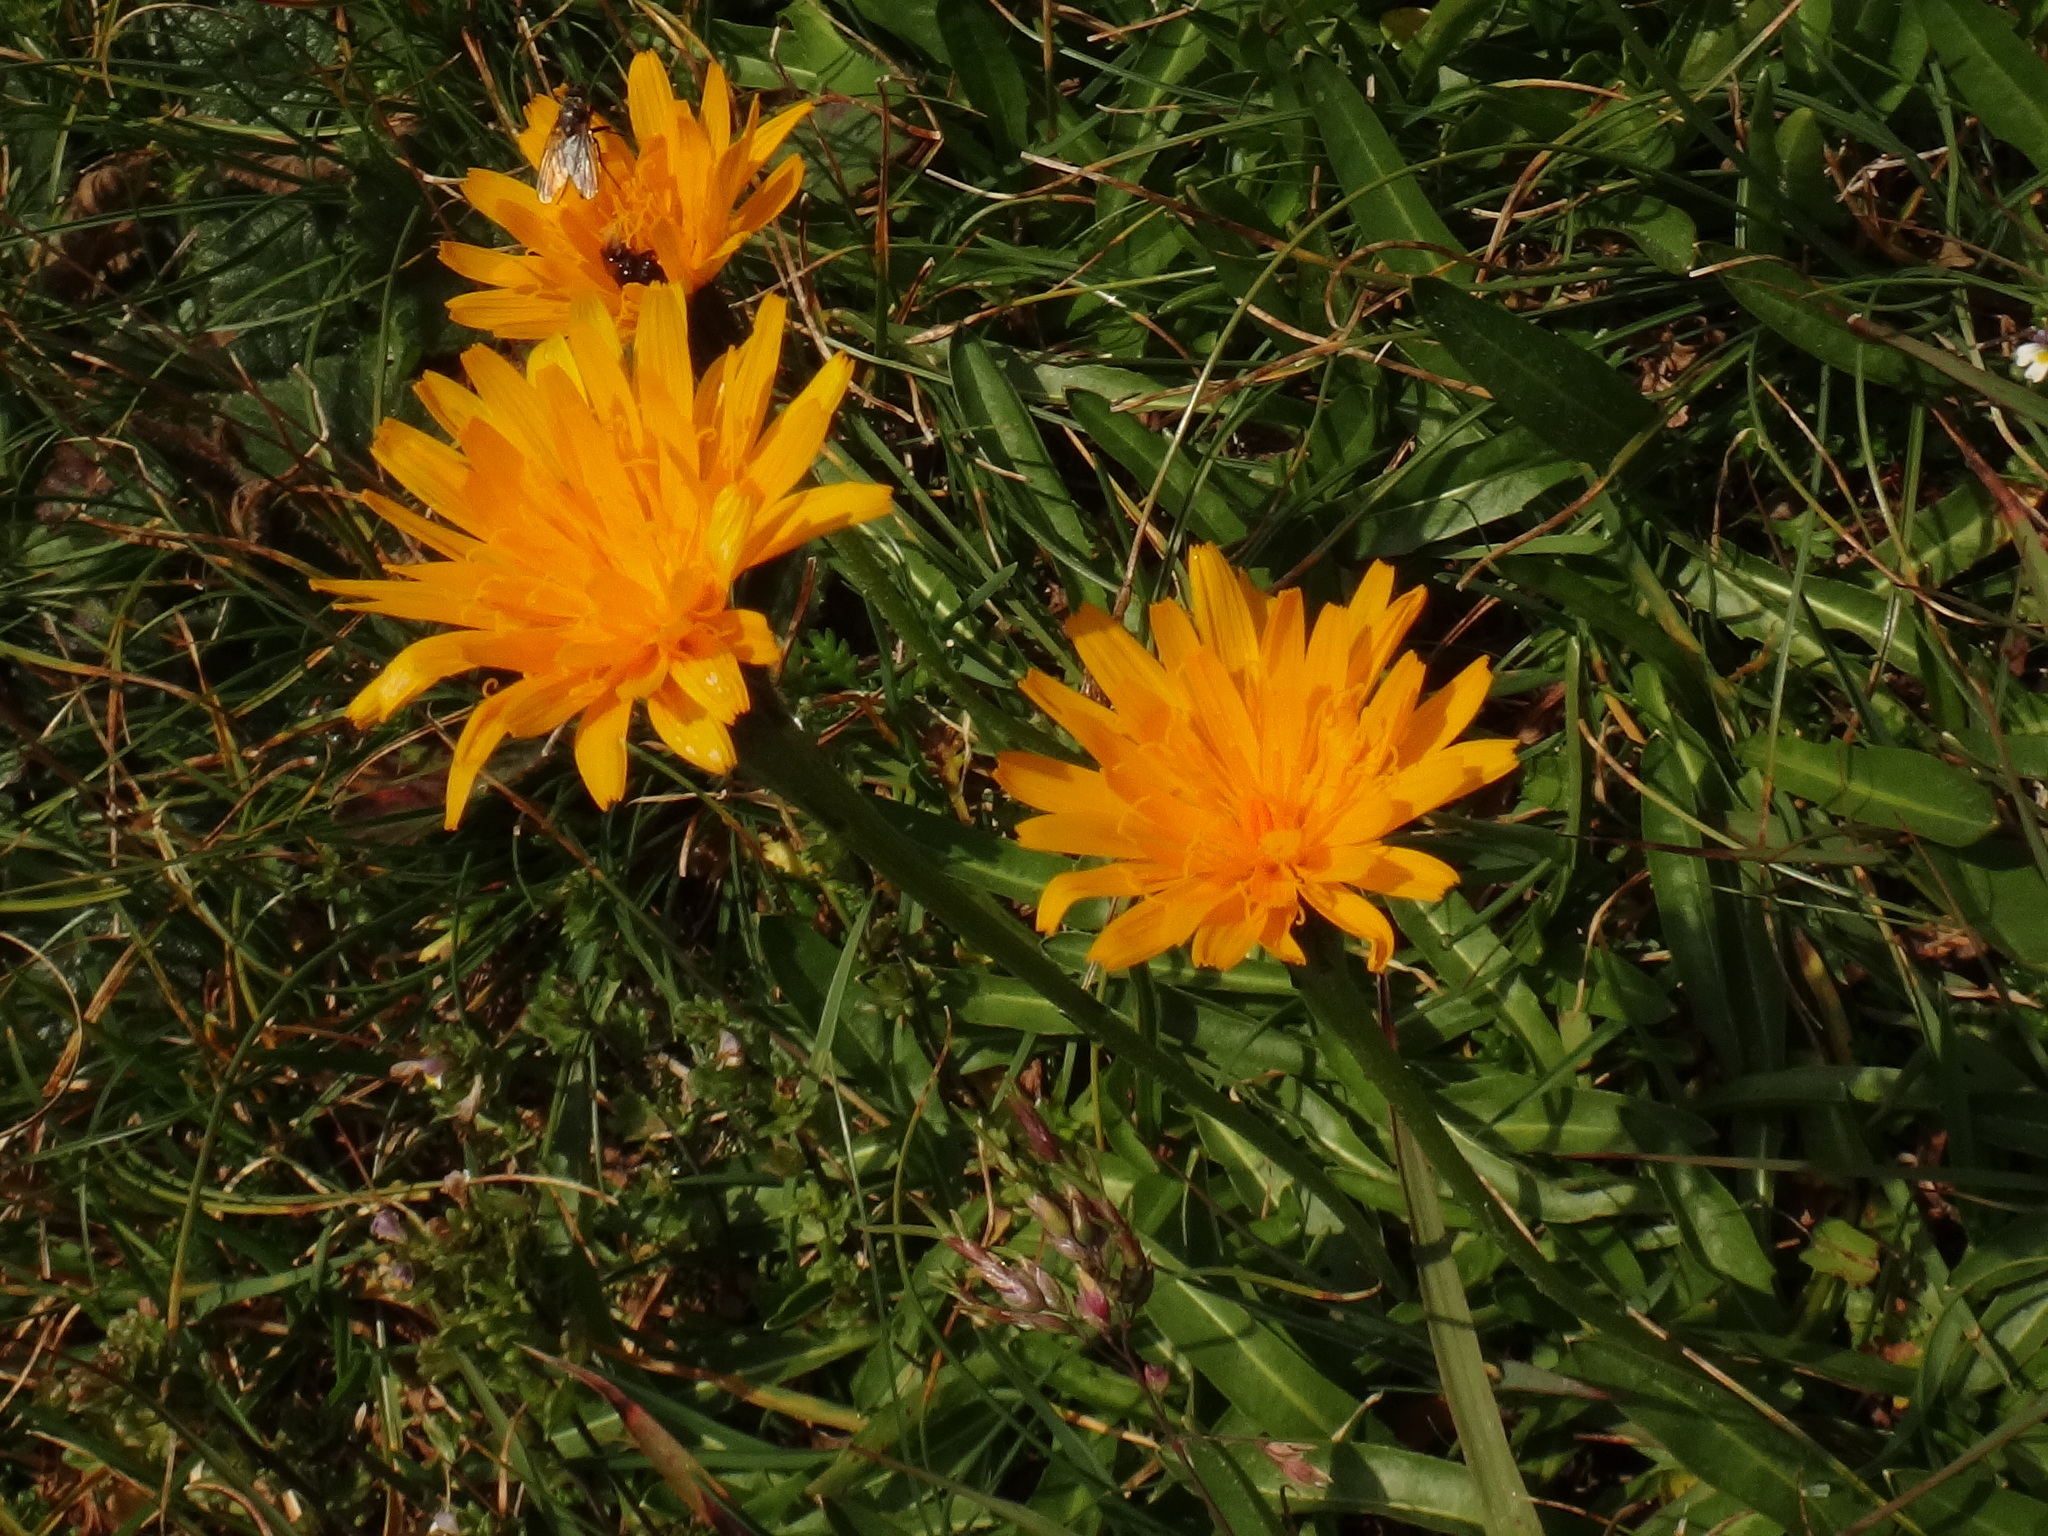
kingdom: Plantae
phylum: Tracheophyta
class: Magnoliopsida
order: Asterales
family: Asteraceae
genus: Scorzoneroides
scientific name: Scorzoneroides crocea
